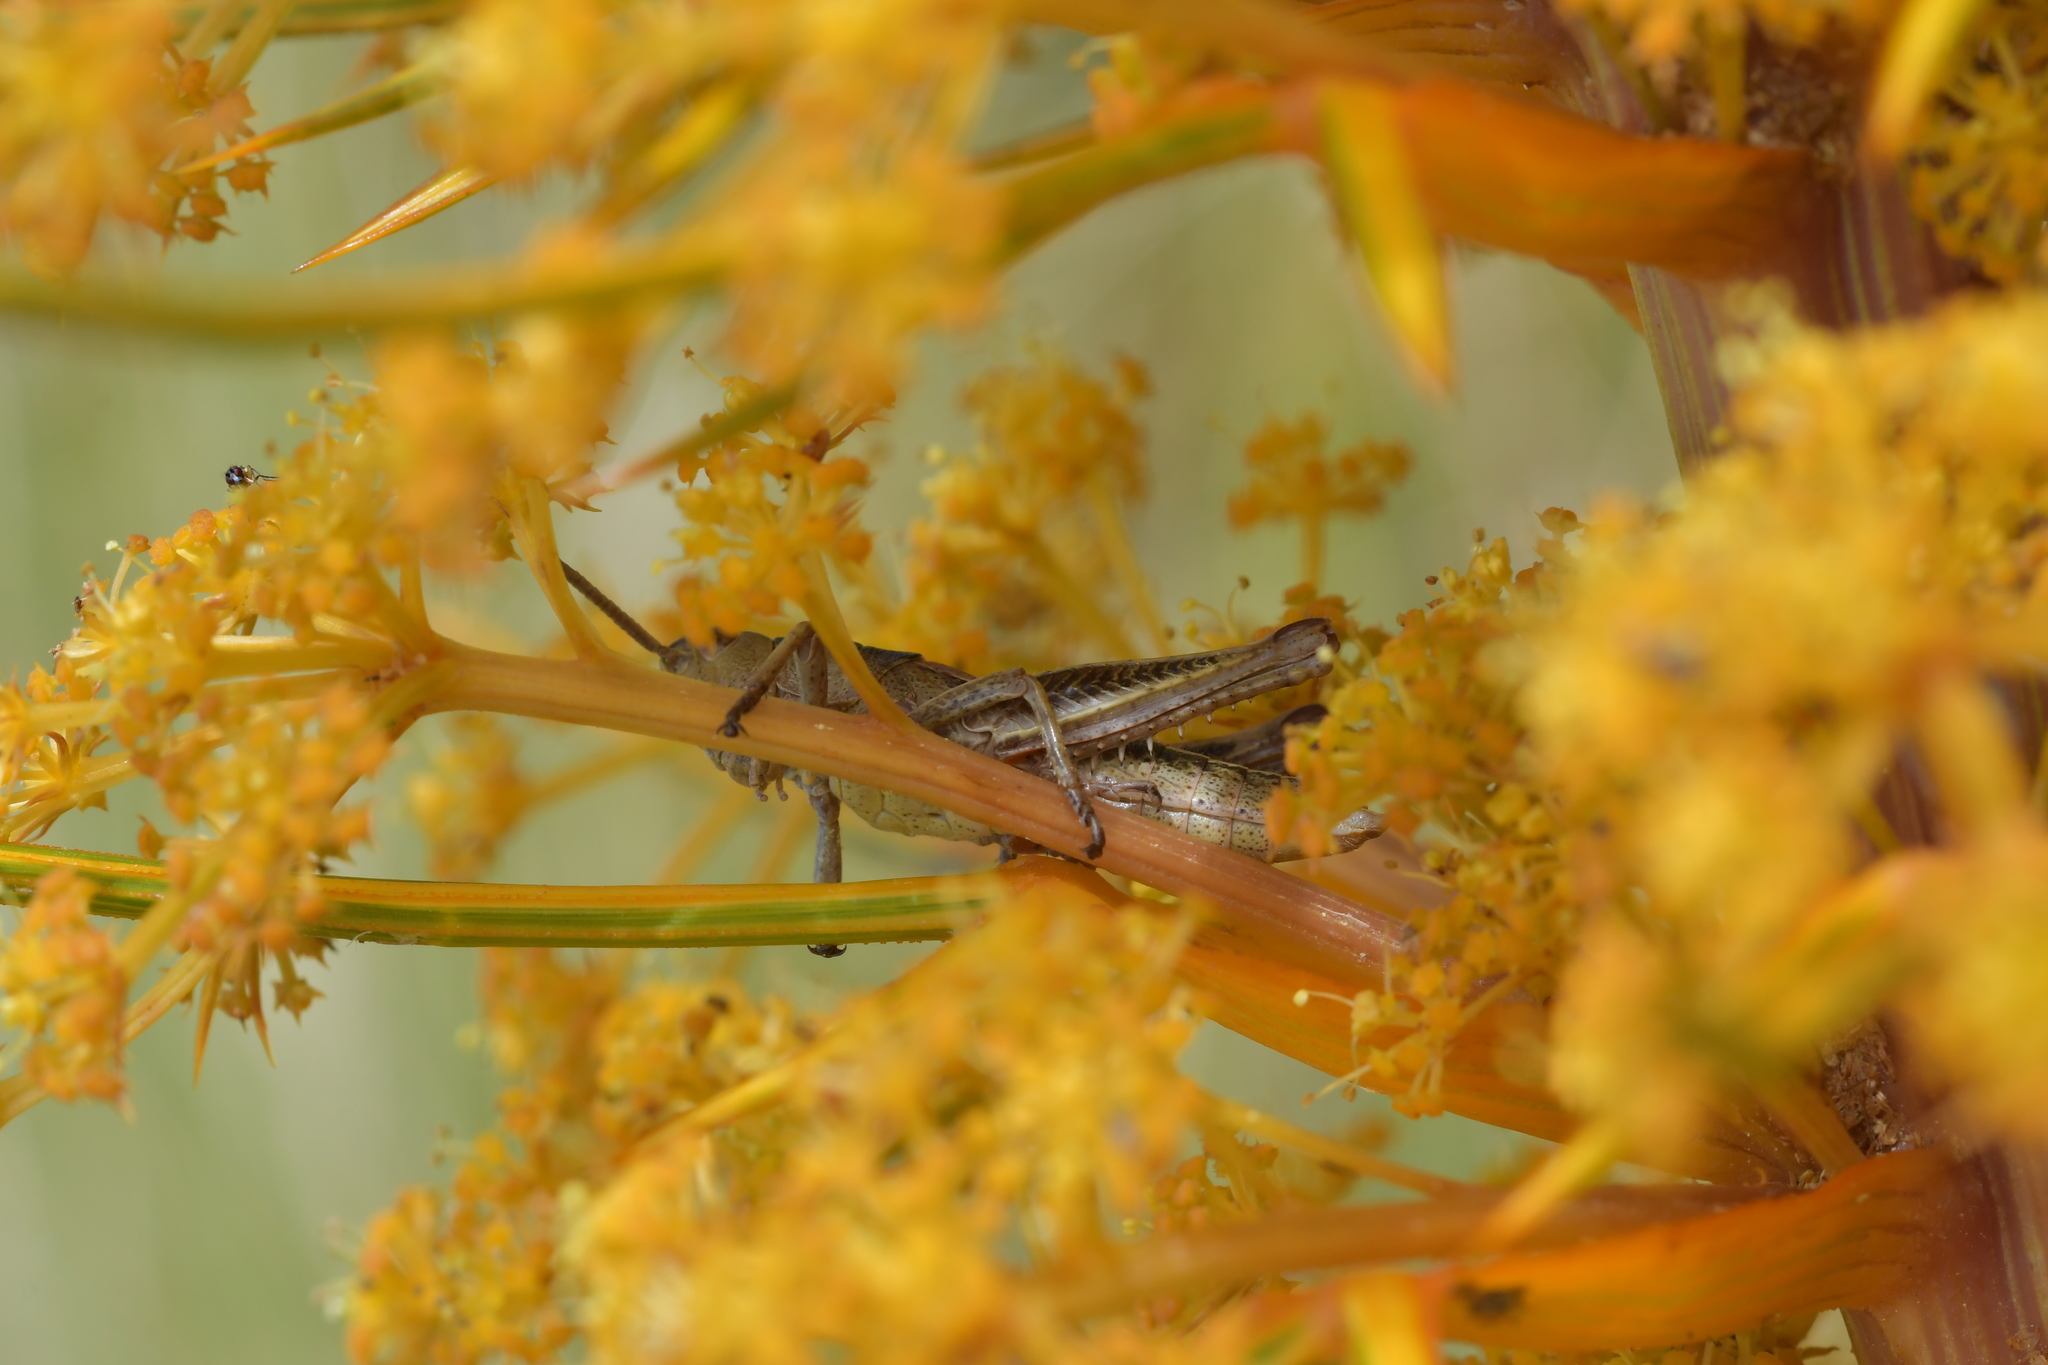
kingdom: Animalia
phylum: Arthropoda
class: Insecta
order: Orthoptera
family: Acrididae
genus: Sigaus
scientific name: Sigaus piliferus
